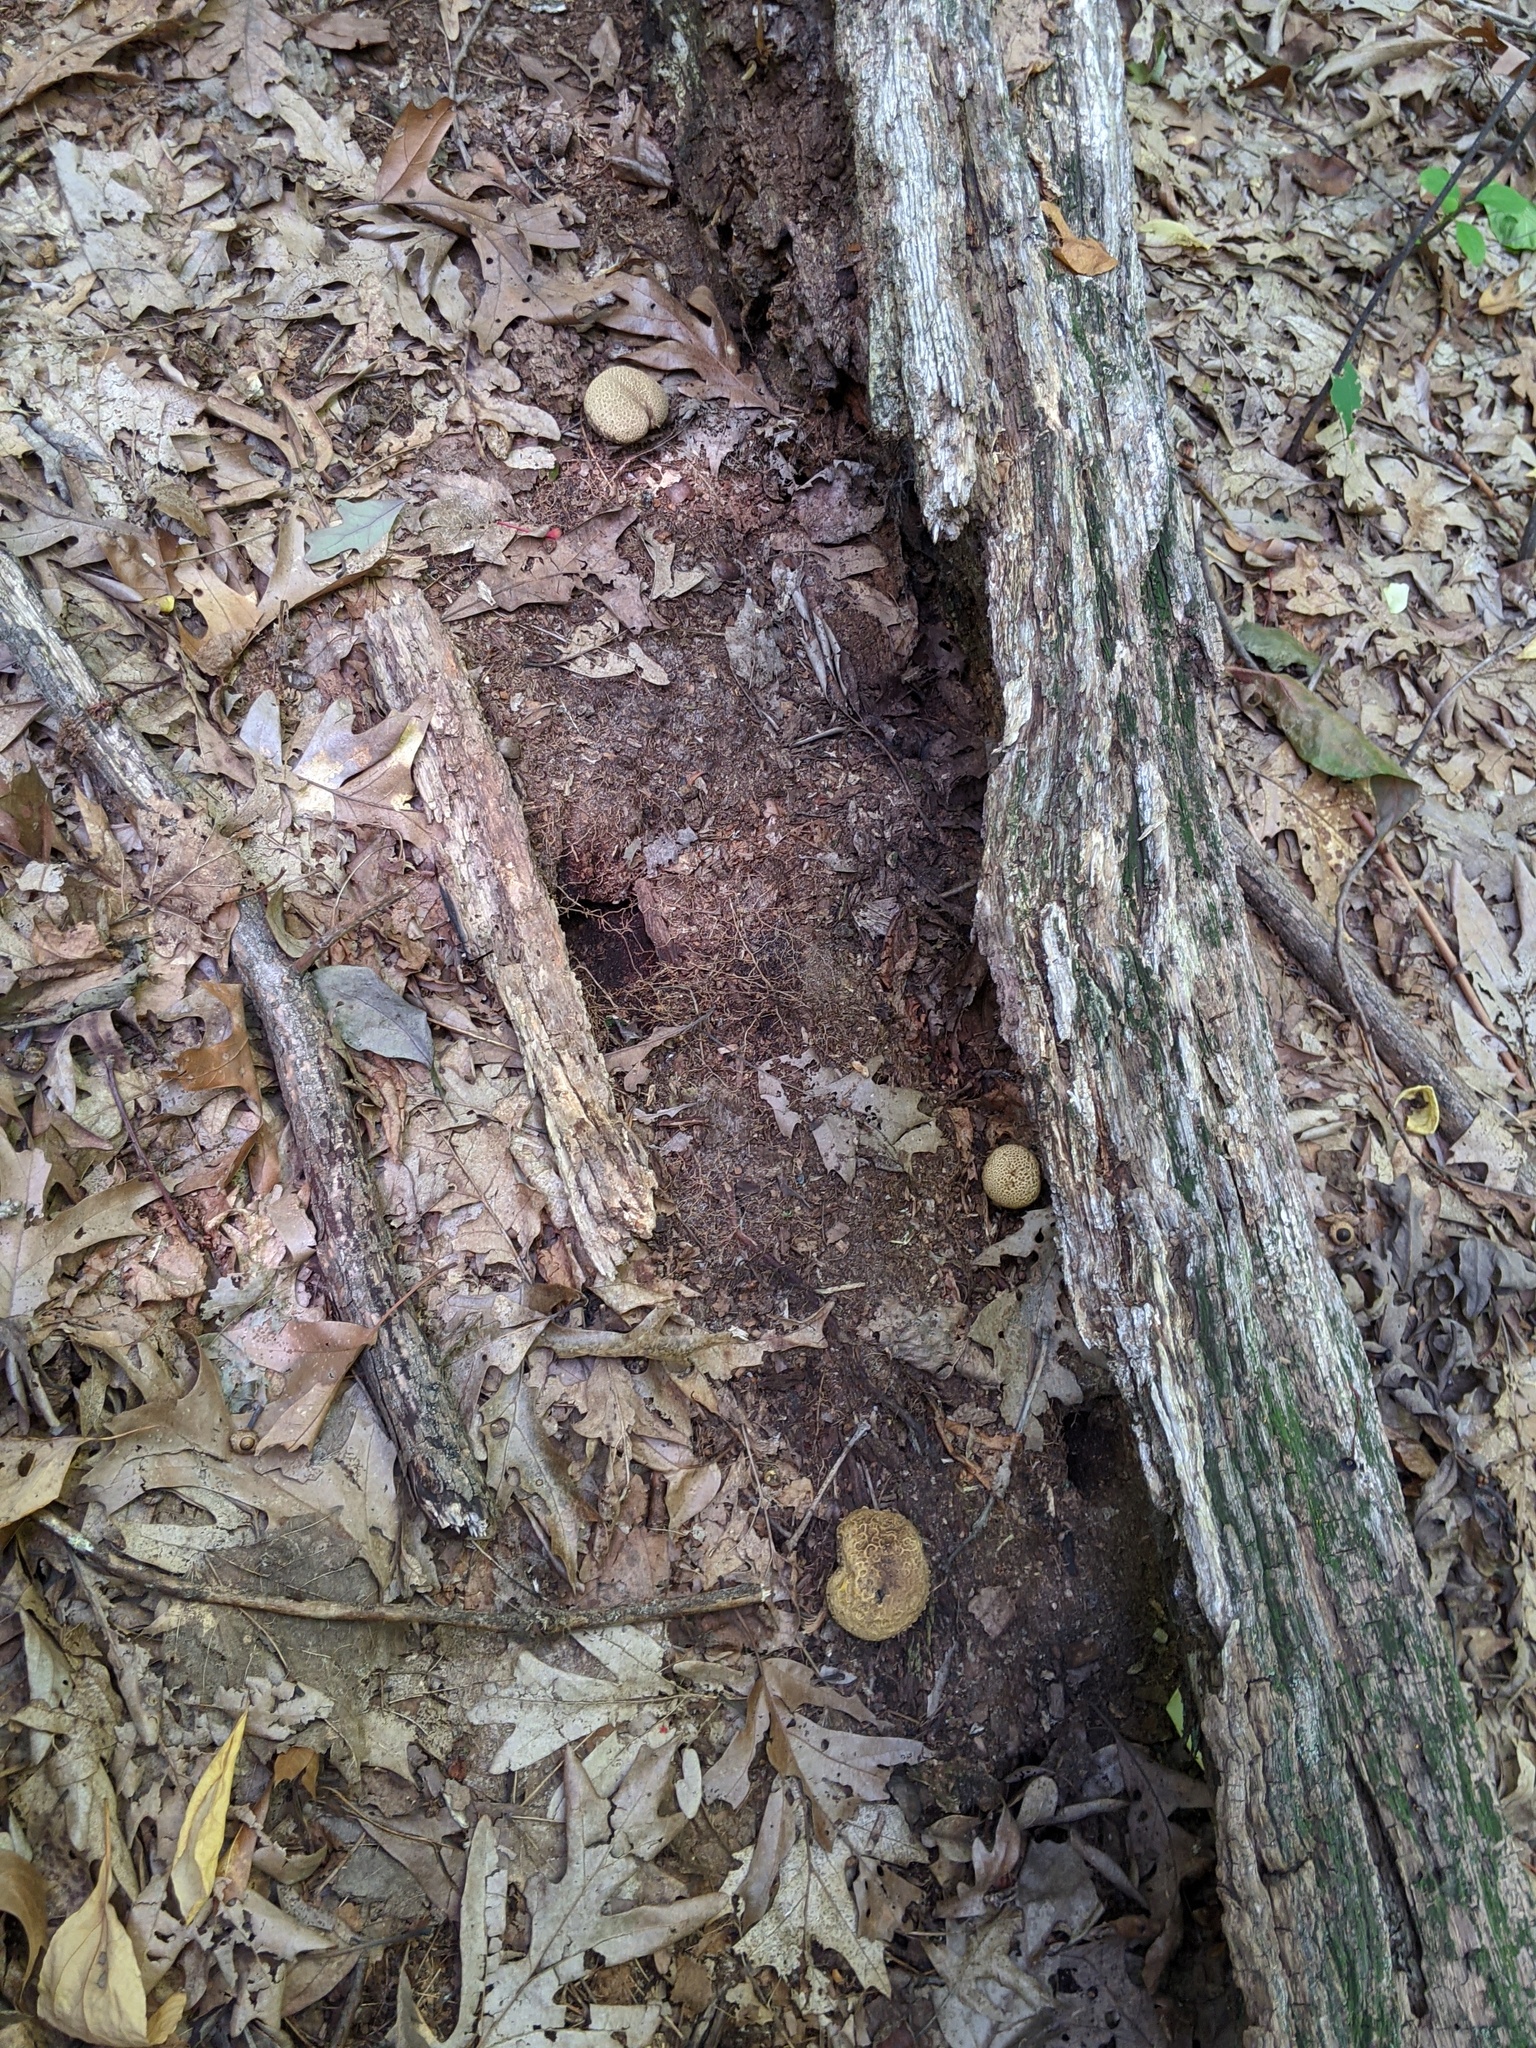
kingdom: Fungi
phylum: Basidiomycota
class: Agaricomycetes
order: Boletales
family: Sclerodermataceae
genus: Scleroderma
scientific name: Scleroderma citrinum
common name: Common earthball
